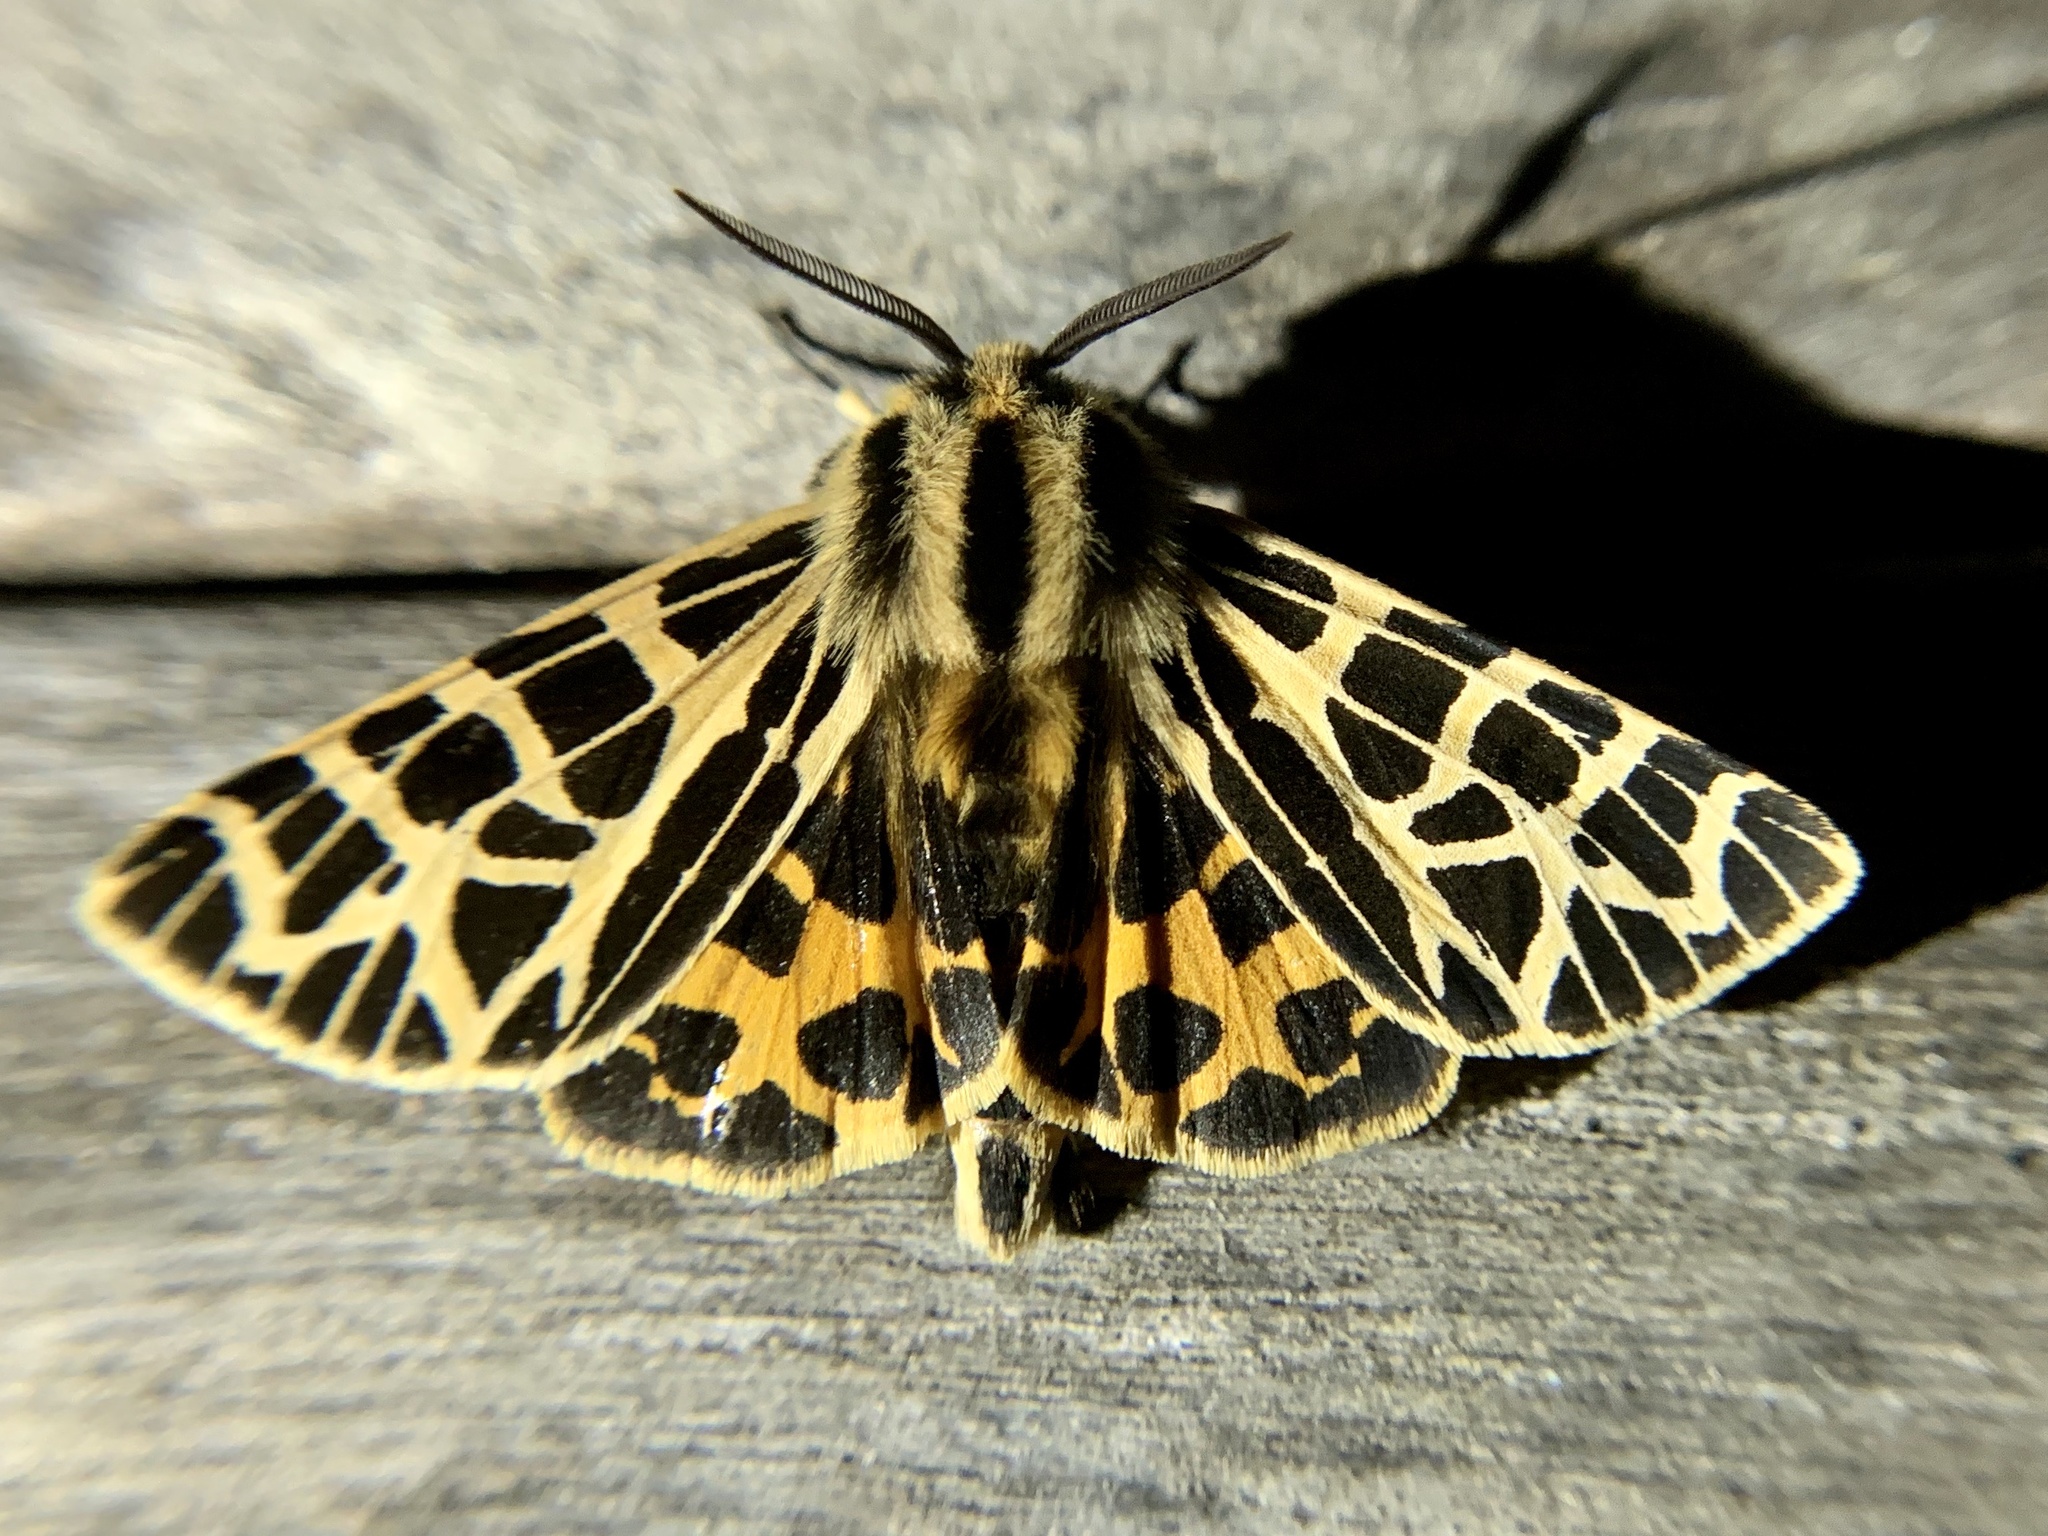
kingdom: Animalia
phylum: Arthropoda
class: Insecta
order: Lepidoptera
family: Erebidae
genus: Apantesis
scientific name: Apantesis
